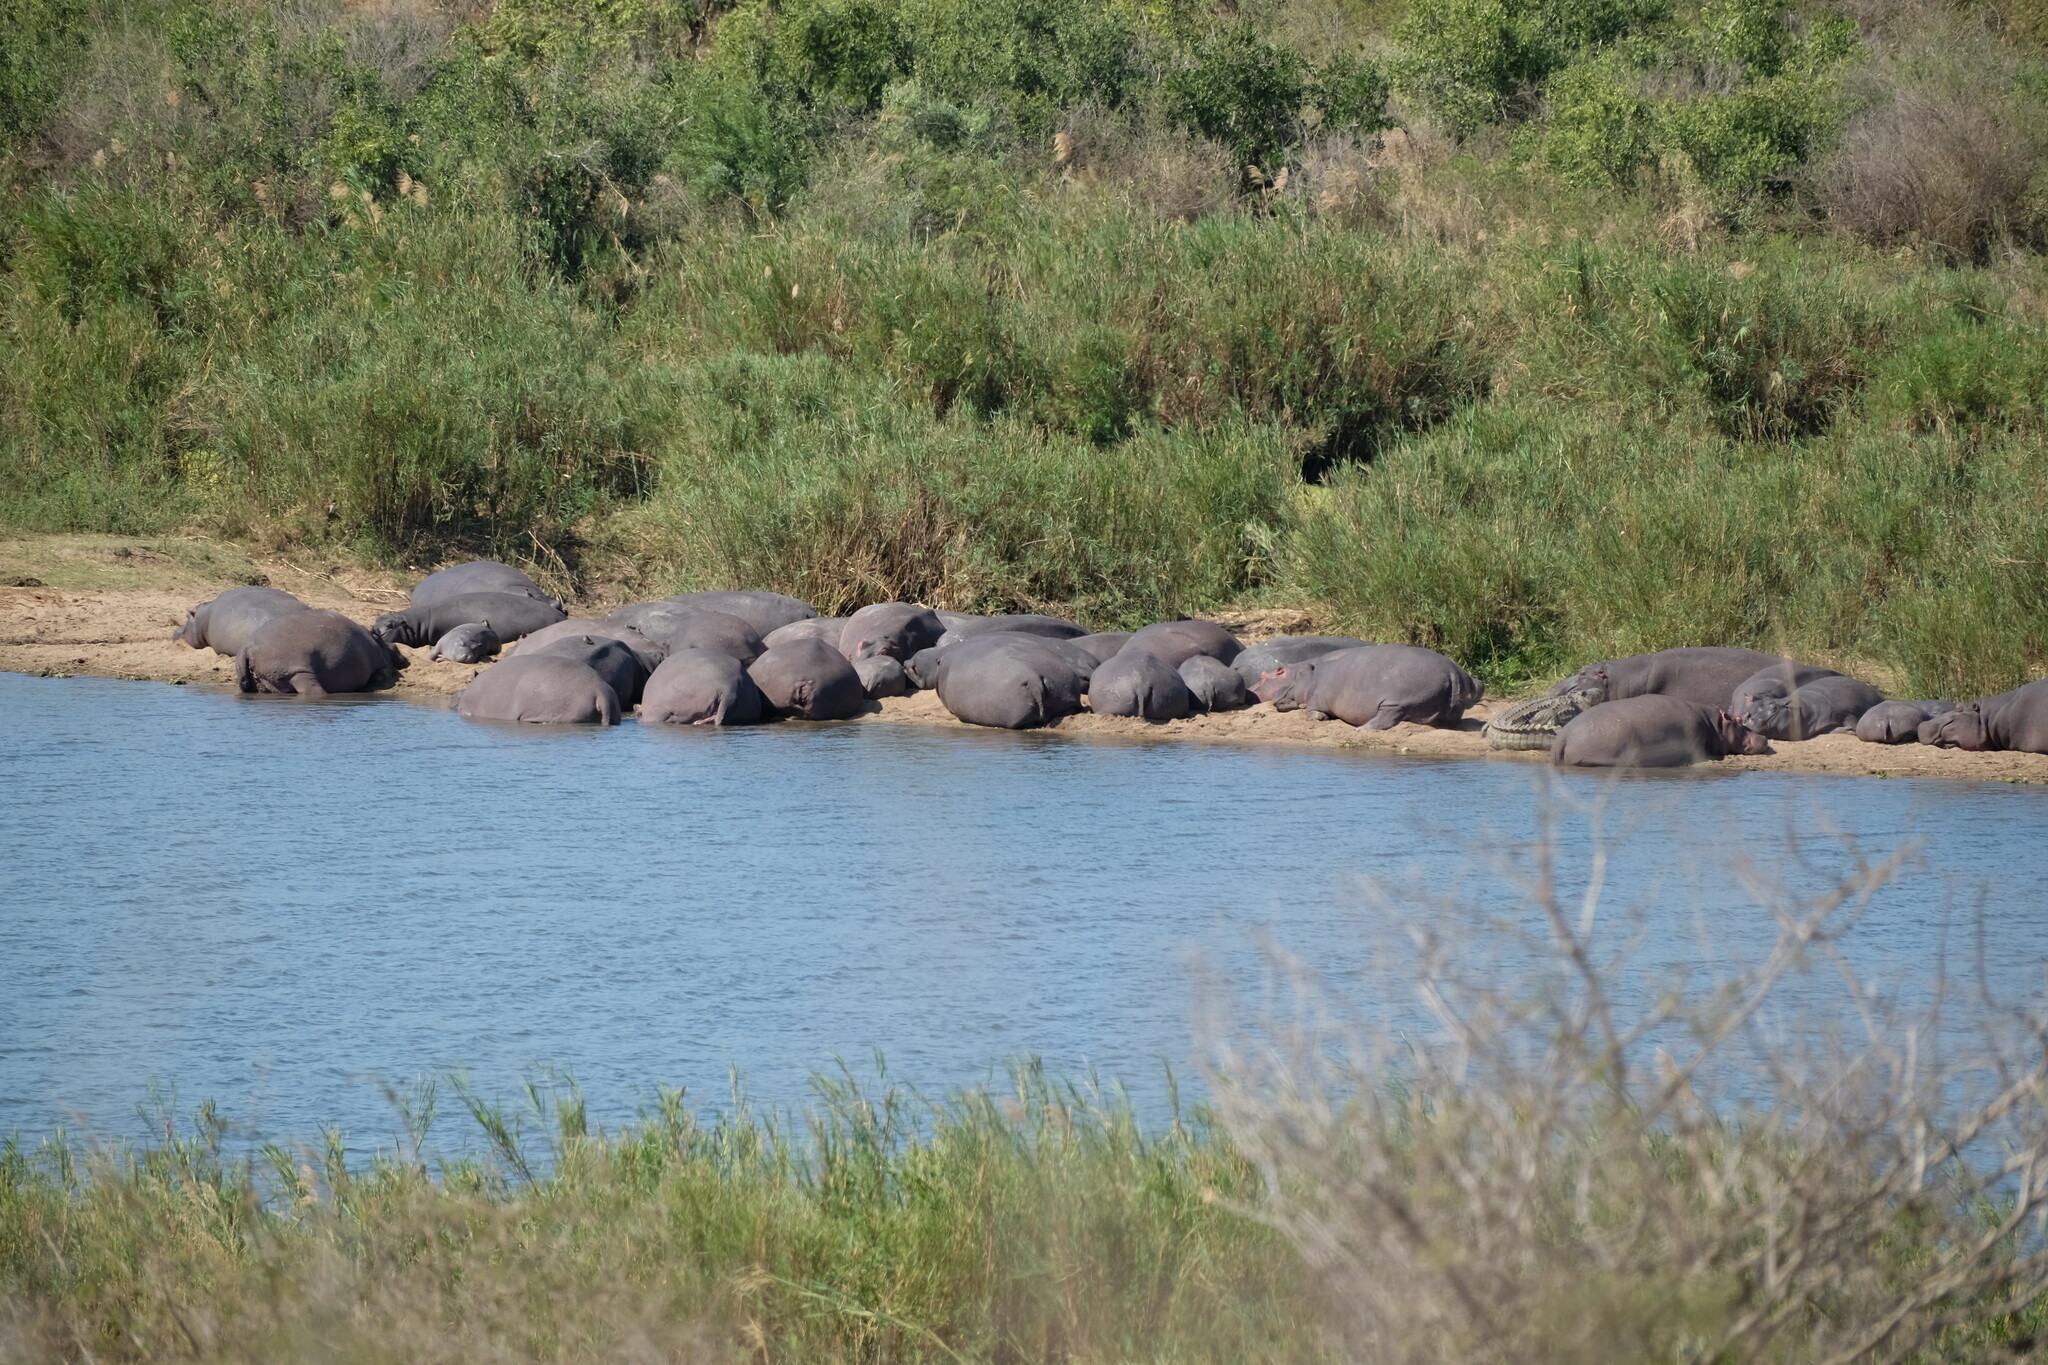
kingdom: Animalia
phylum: Chordata
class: Mammalia
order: Artiodactyla
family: Hippopotamidae
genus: Hippopotamus
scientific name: Hippopotamus amphibius
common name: Common hippopotamus
